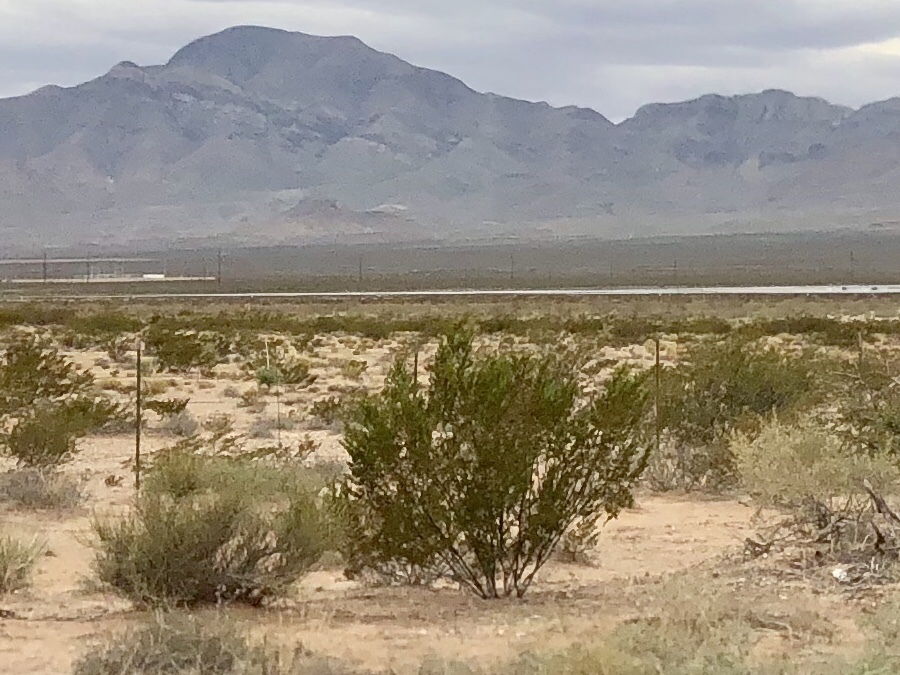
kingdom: Plantae
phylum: Tracheophyta
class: Magnoliopsida
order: Zygophyllales
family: Zygophyllaceae
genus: Larrea
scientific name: Larrea tridentata
